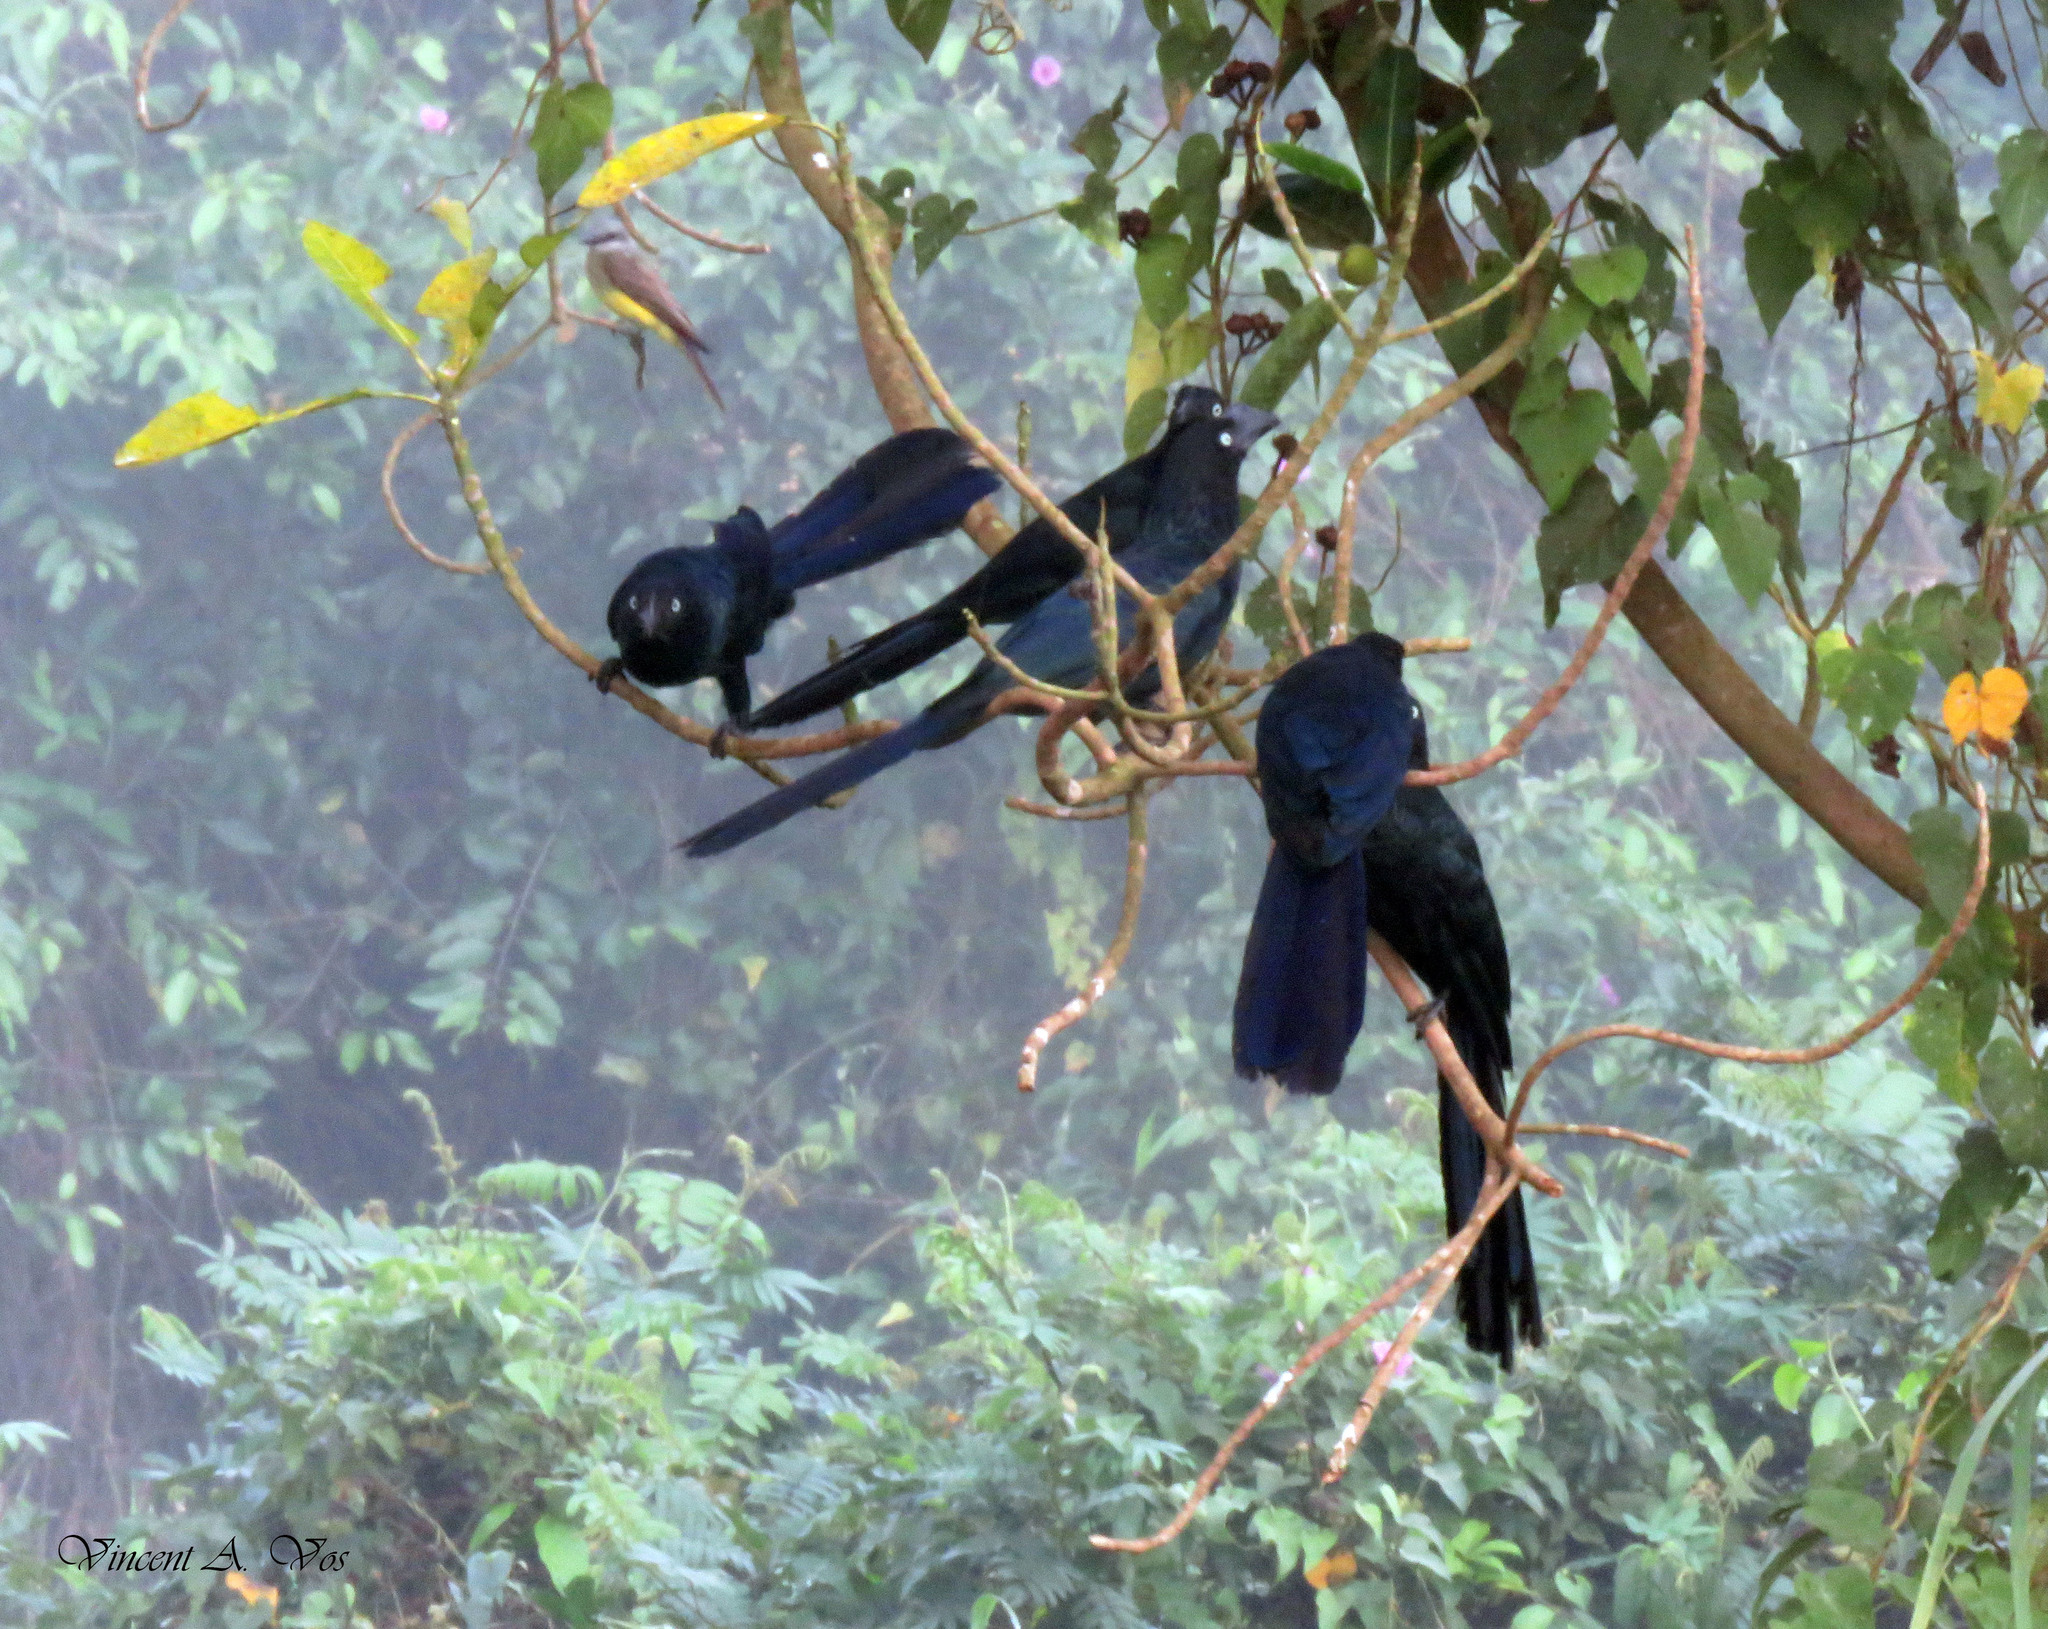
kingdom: Animalia
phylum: Chordata
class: Aves
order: Cuculiformes
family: Cuculidae
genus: Crotophaga
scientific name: Crotophaga major
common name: Greater ani
